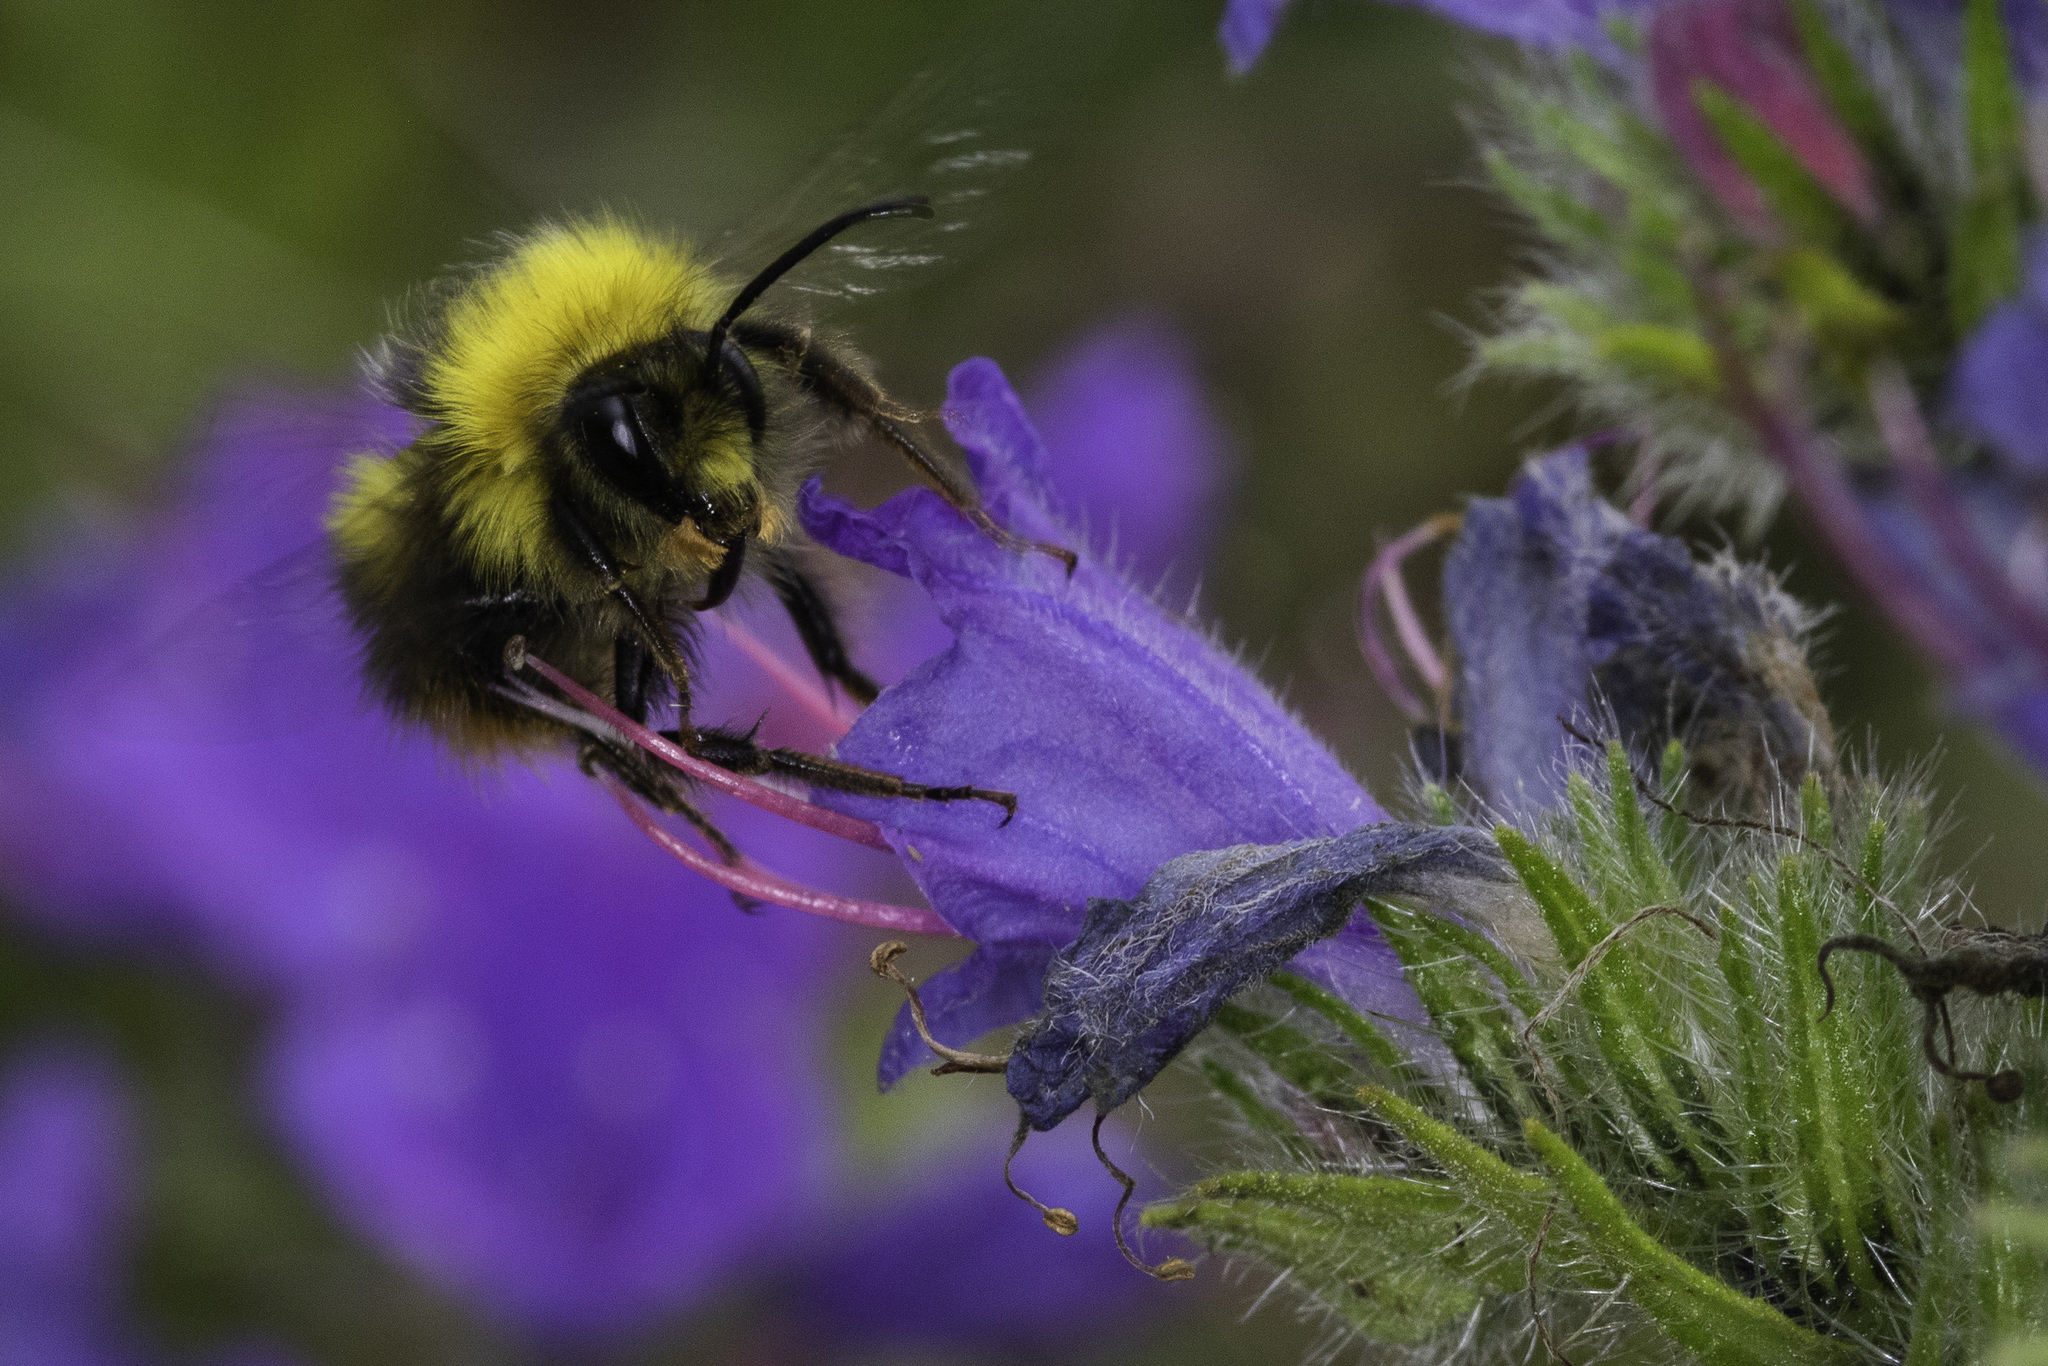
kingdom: Animalia
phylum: Arthropoda
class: Insecta
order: Hymenoptera
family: Apidae
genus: Bombus
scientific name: Bombus pratorum
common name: Early humble-bee
